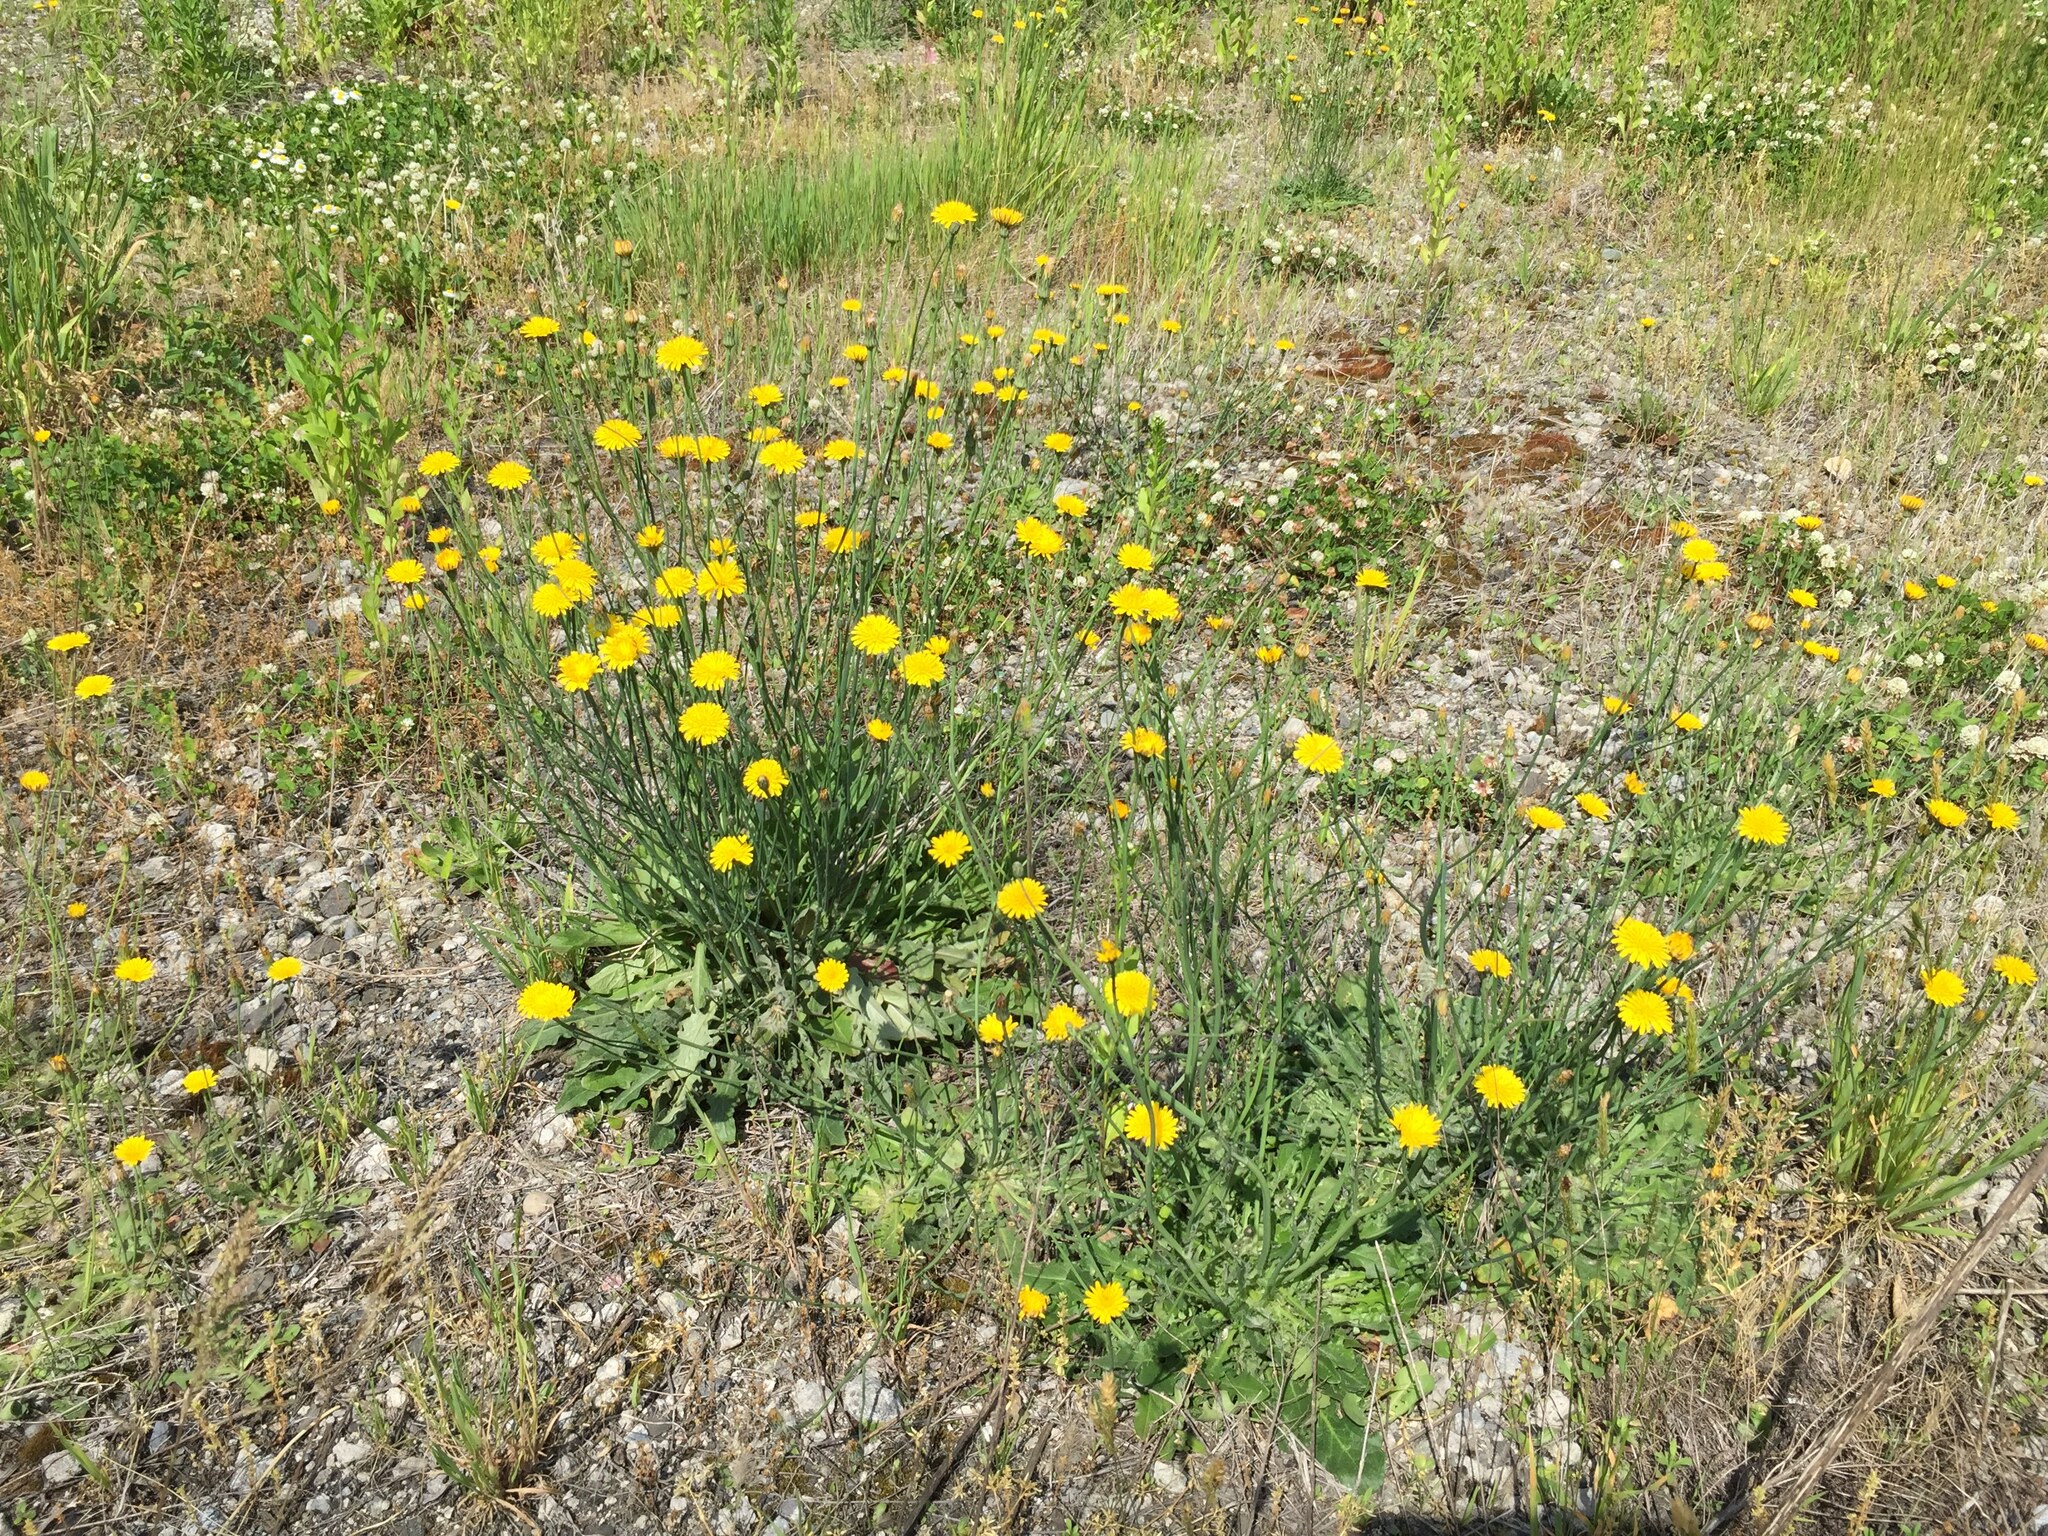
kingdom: Plantae
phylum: Tracheophyta
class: Magnoliopsida
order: Asterales
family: Asteraceae
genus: Hypochaeris
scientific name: Hypochaeris radicata
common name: Flatweed
